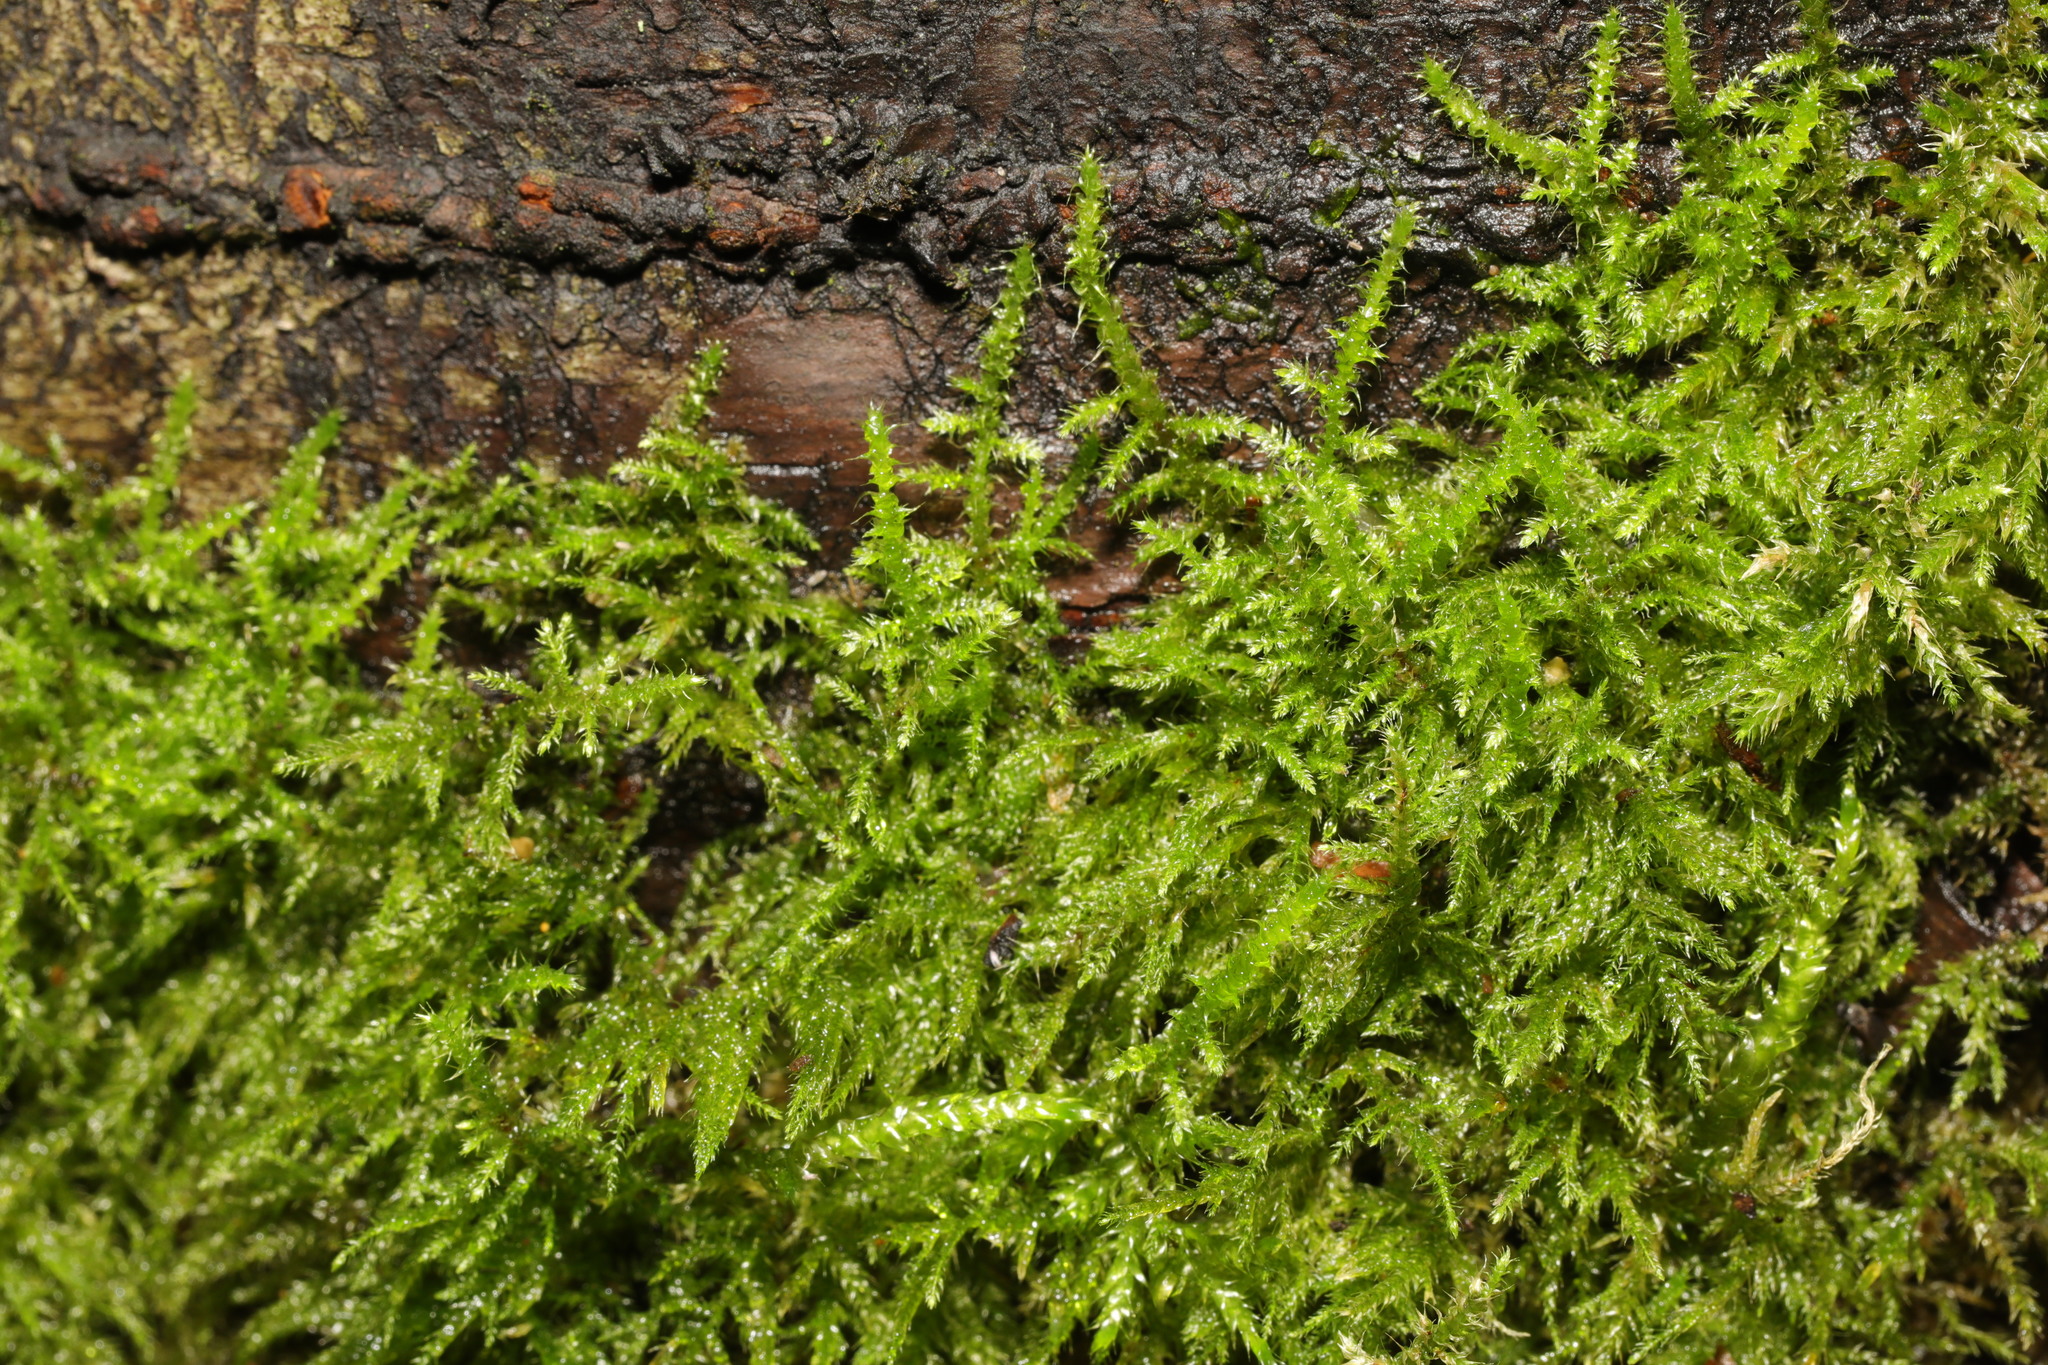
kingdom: Plantae
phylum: Bryophyta
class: Bryopsida
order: Hypnales
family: Brachytheciaceae
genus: Kindbergia
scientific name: Kindbergia praelonga
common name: Slender beaked moss
